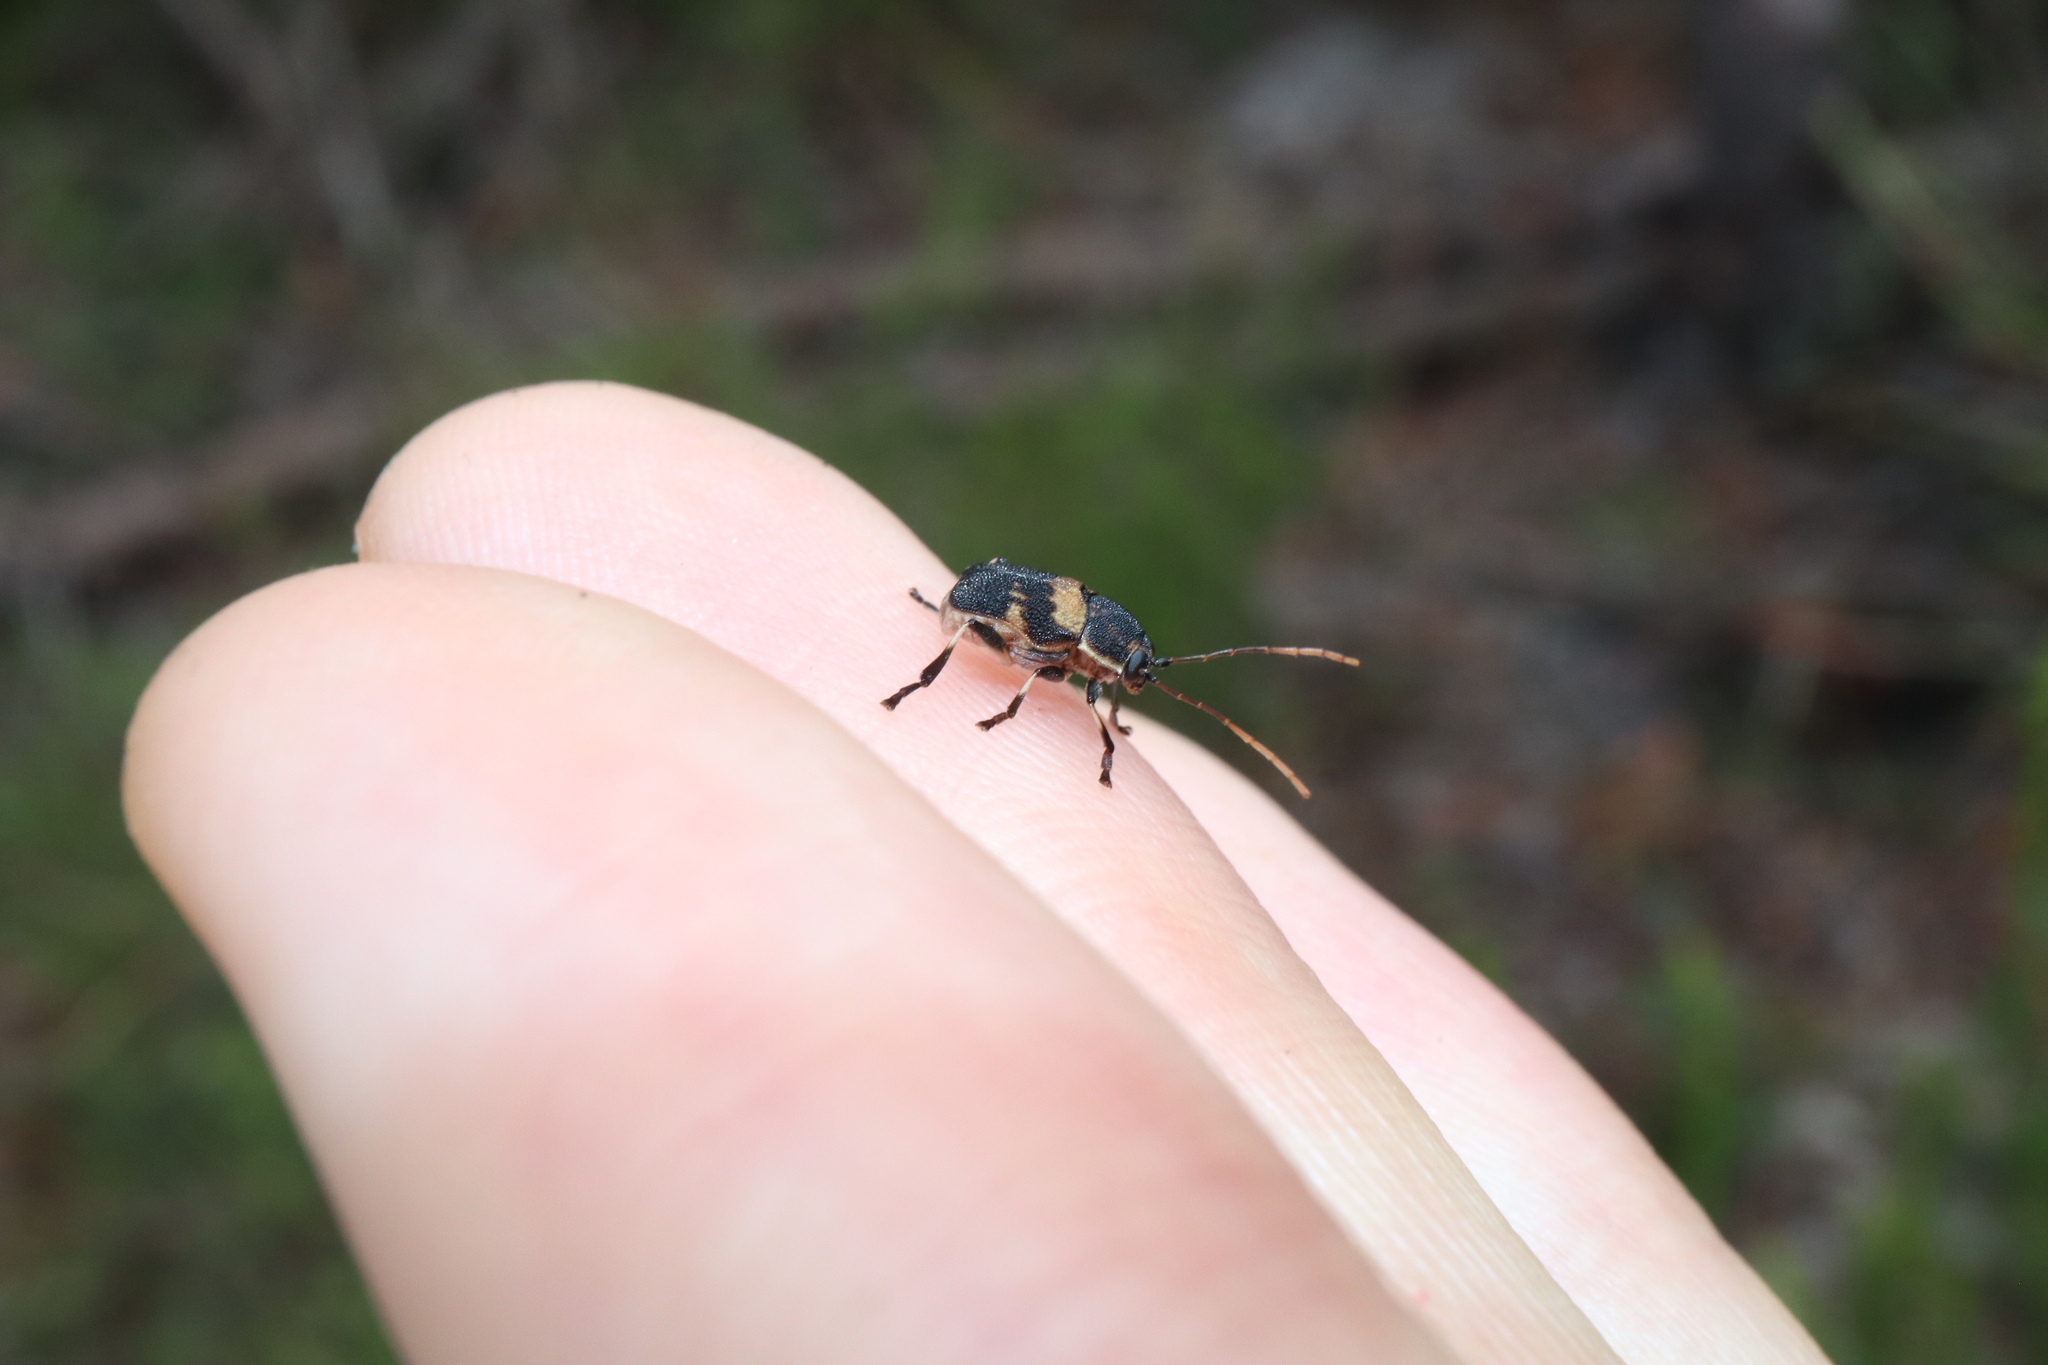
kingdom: Animalia
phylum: Arthropoda
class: Insecta
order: Coleoptera
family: Chrysomelidae
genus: Cadmus
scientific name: Cadmus
